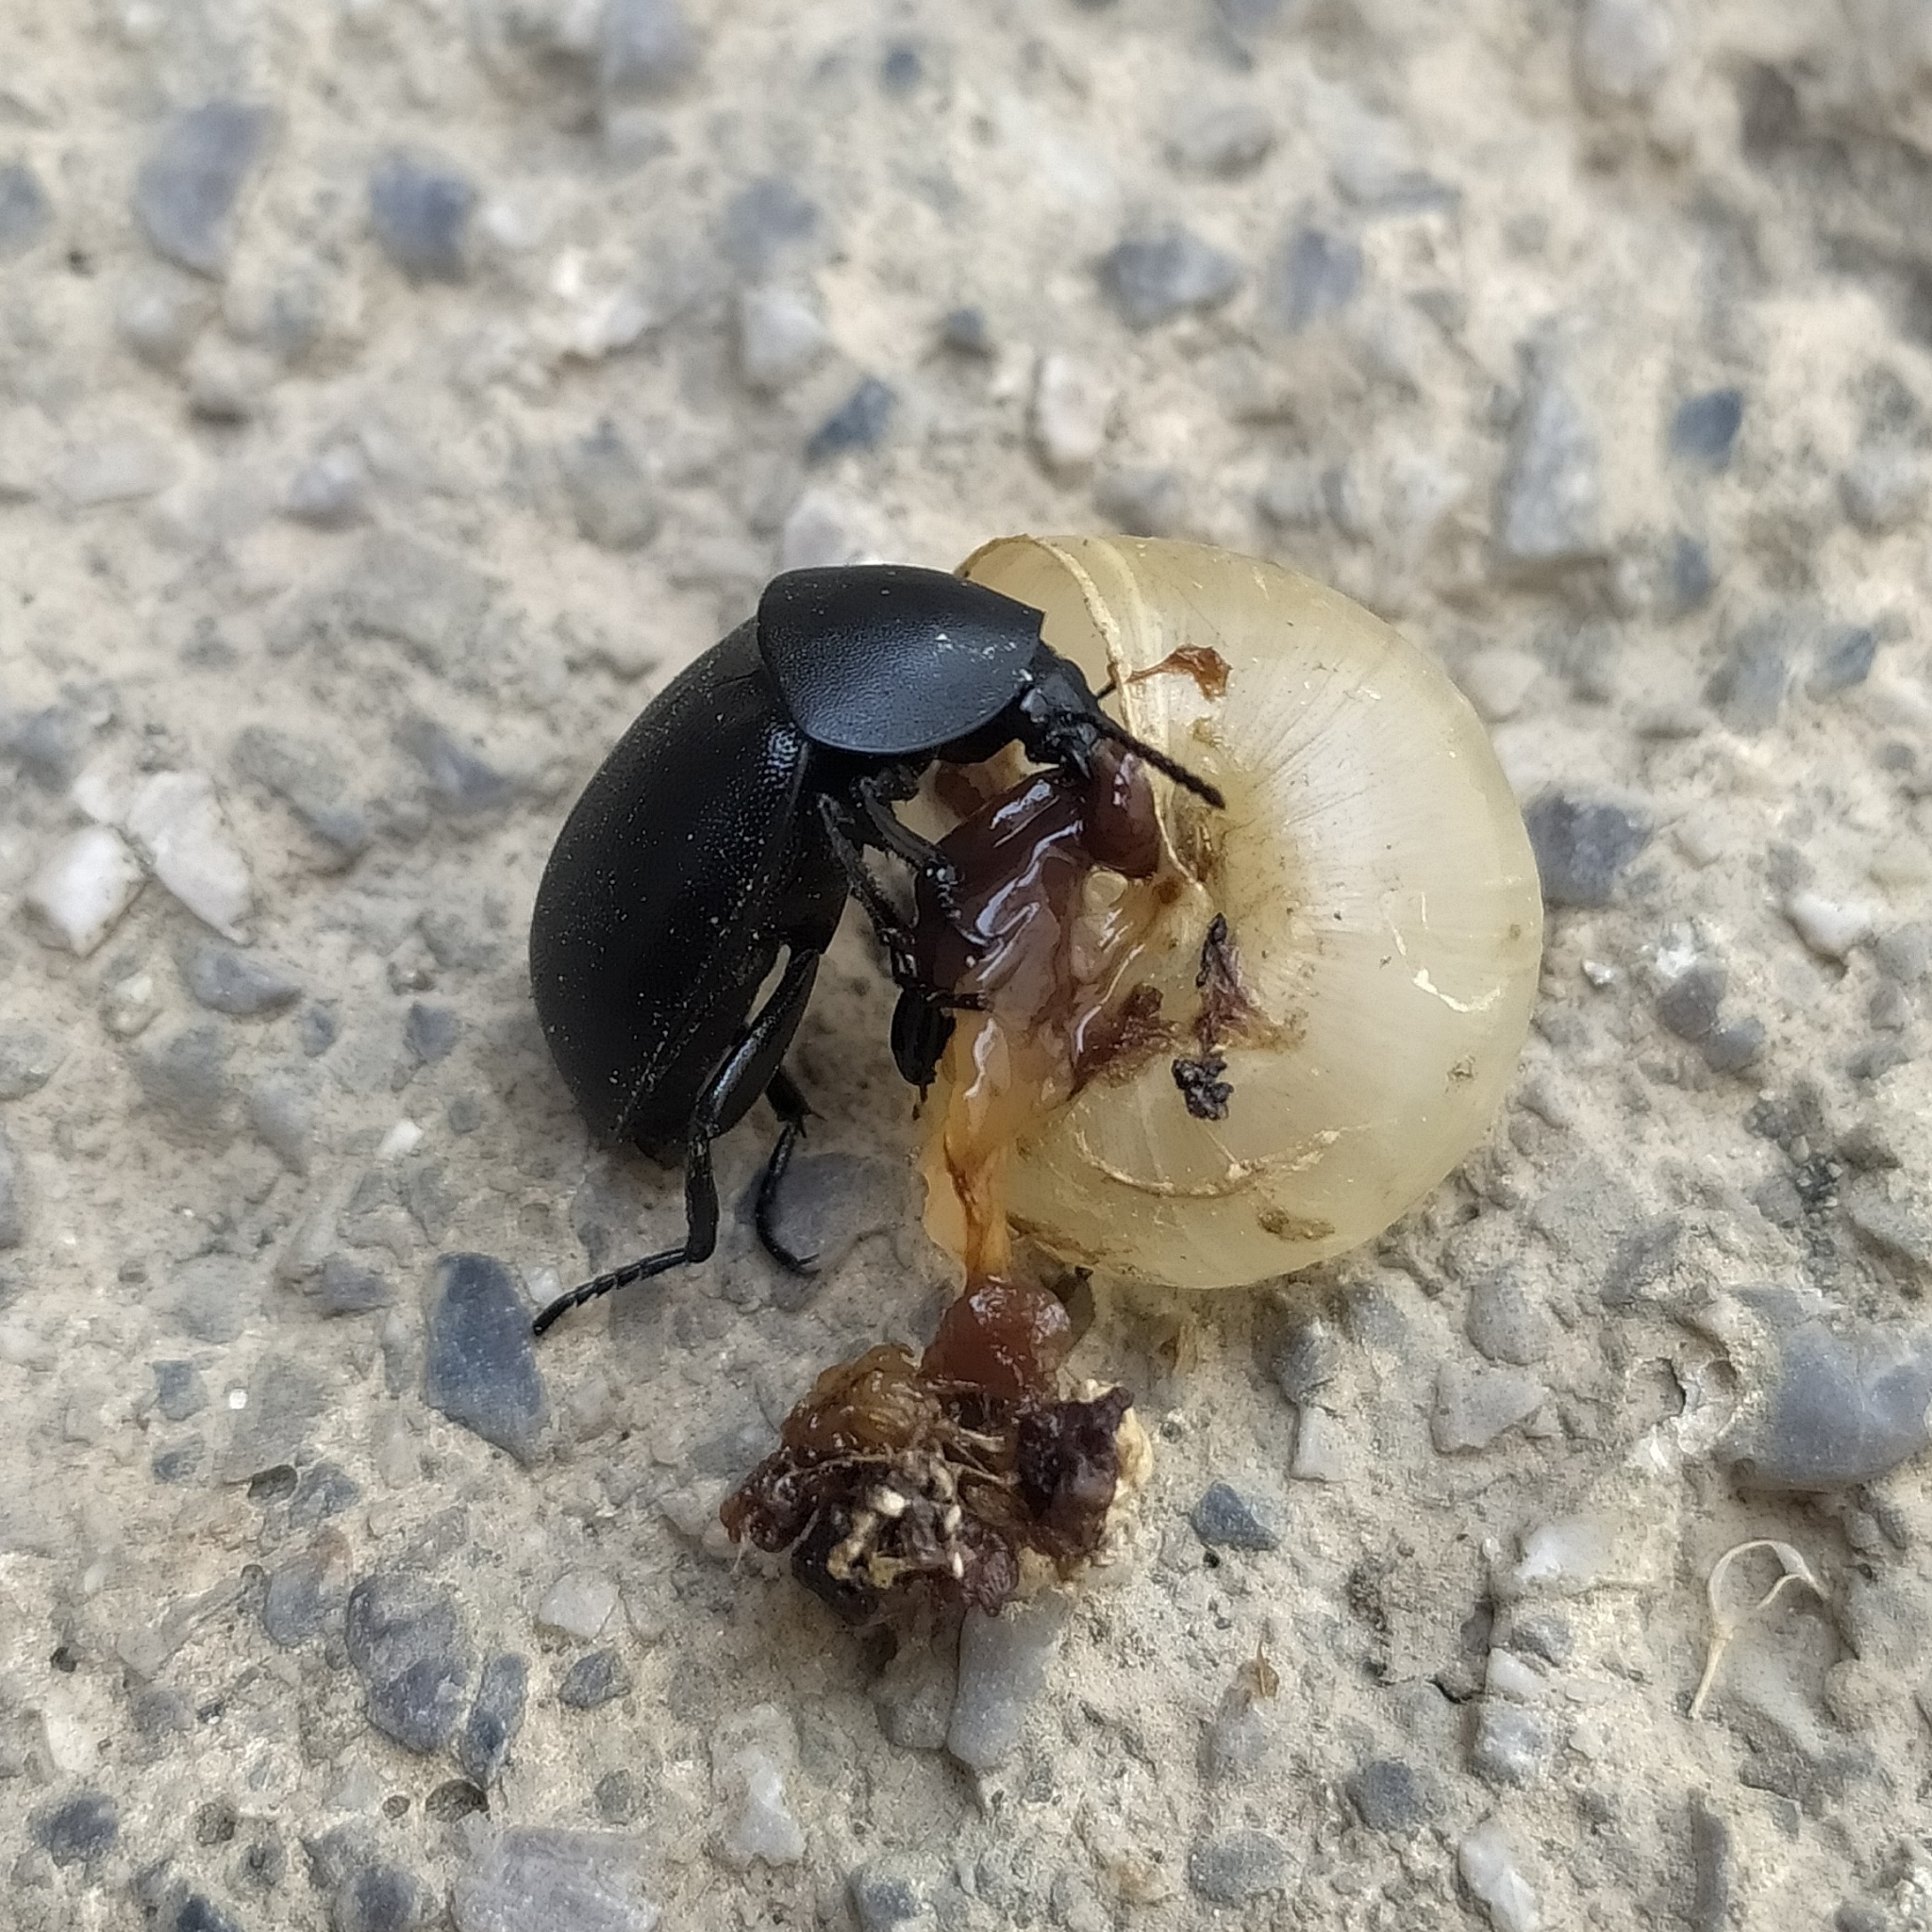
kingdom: Animalia
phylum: Arthropoda
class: Insecta
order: Coleoptera
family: Staphylinidae
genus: Silpha
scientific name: Silpha laevigata
